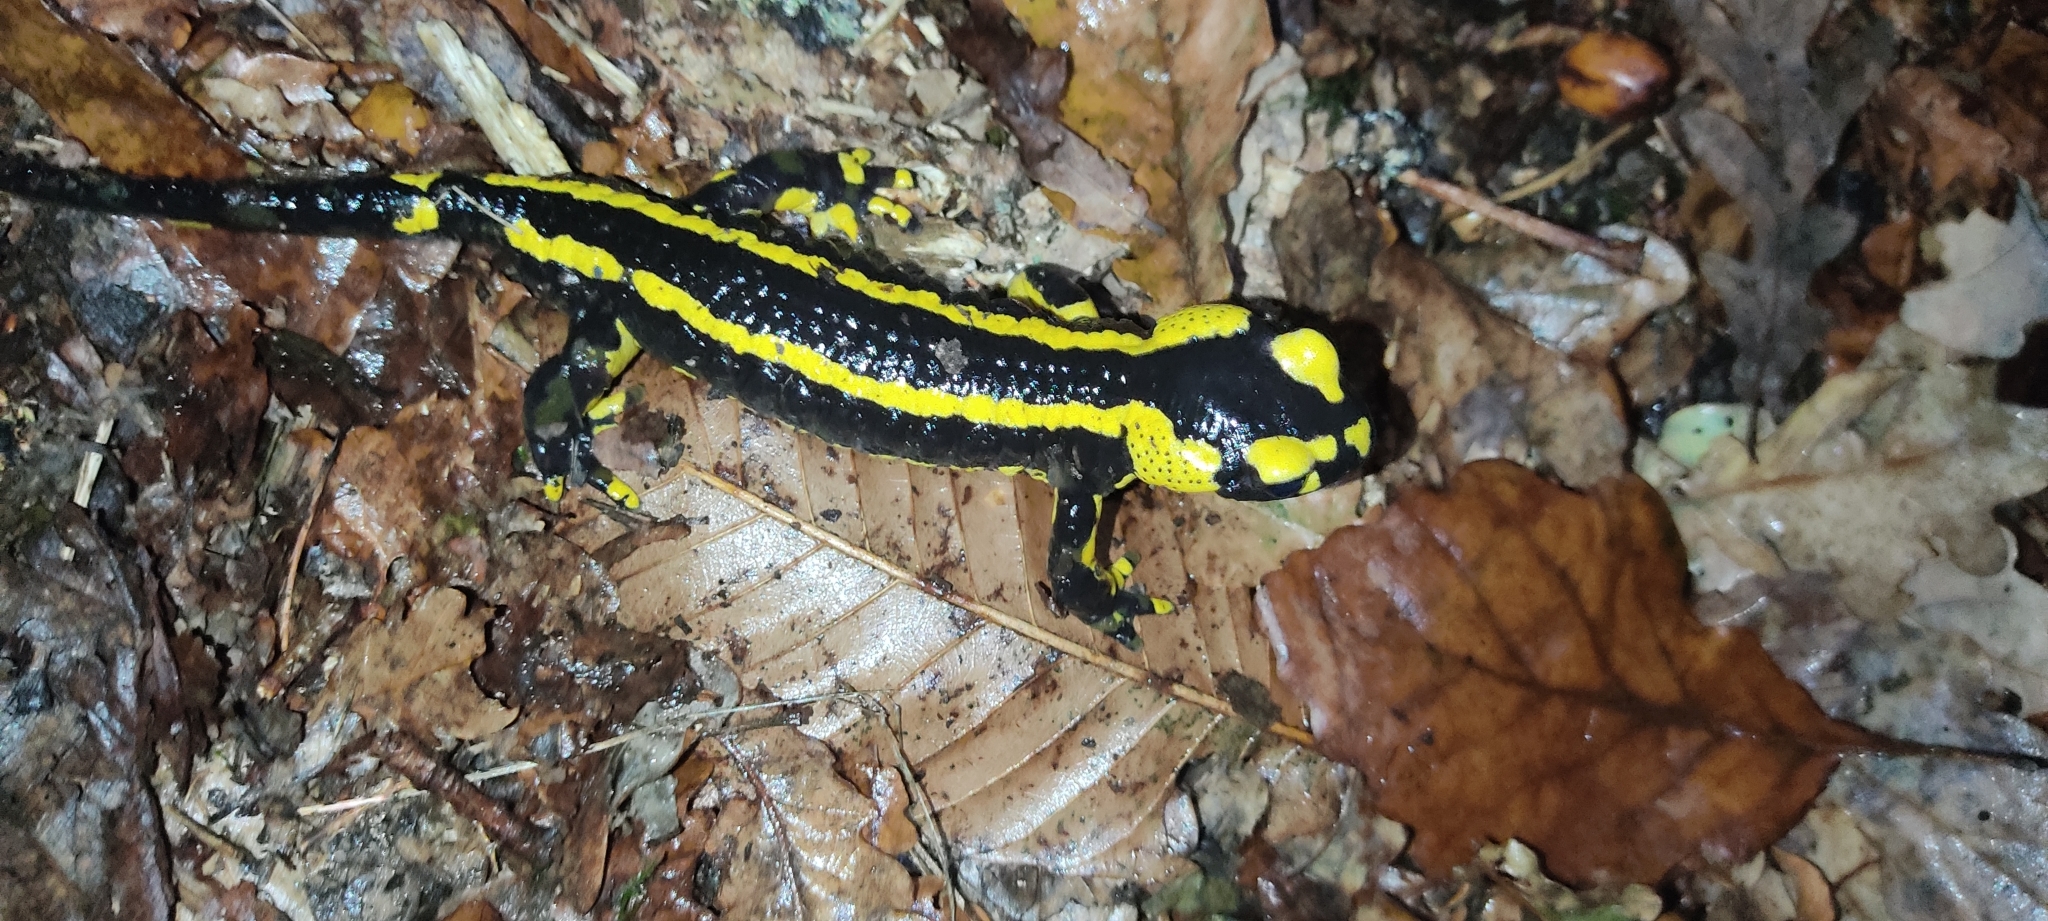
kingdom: Animalia
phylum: Chordata
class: Amphibia
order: Caudata
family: Salamandridae
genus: Salamandra
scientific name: Salamandra salamandra
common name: Fire salamander
